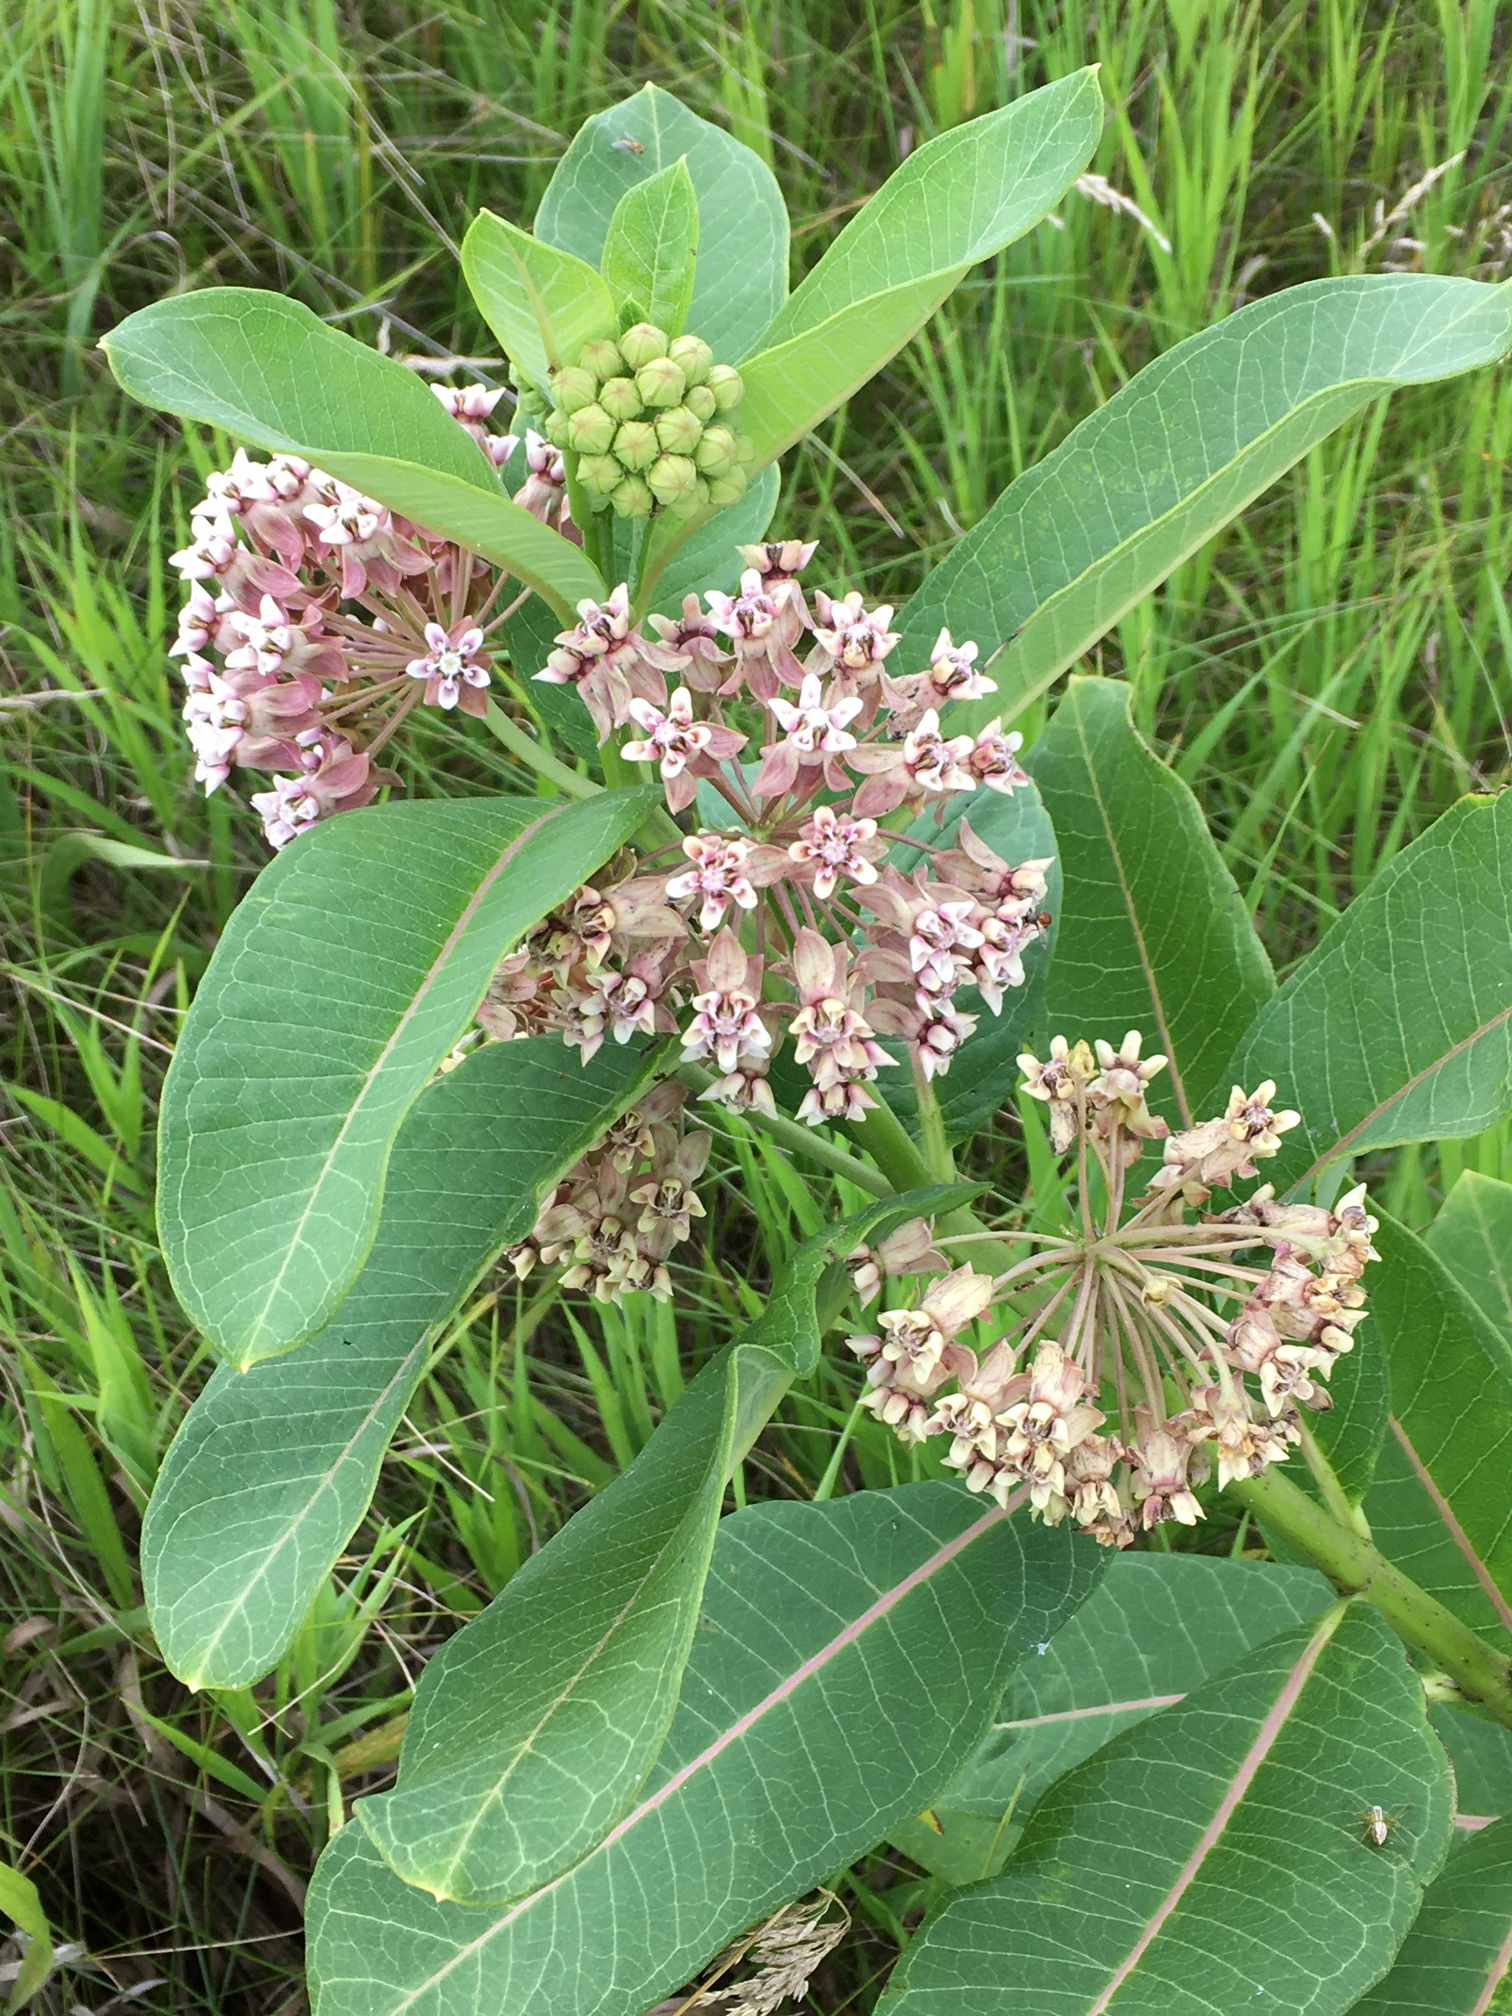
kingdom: Plantae
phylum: Tracheophyta
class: Magnoliopsida
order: Gentianales
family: Apocynaceae
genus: Asclepias
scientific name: Asclepias syriaca
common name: Common milkweed
